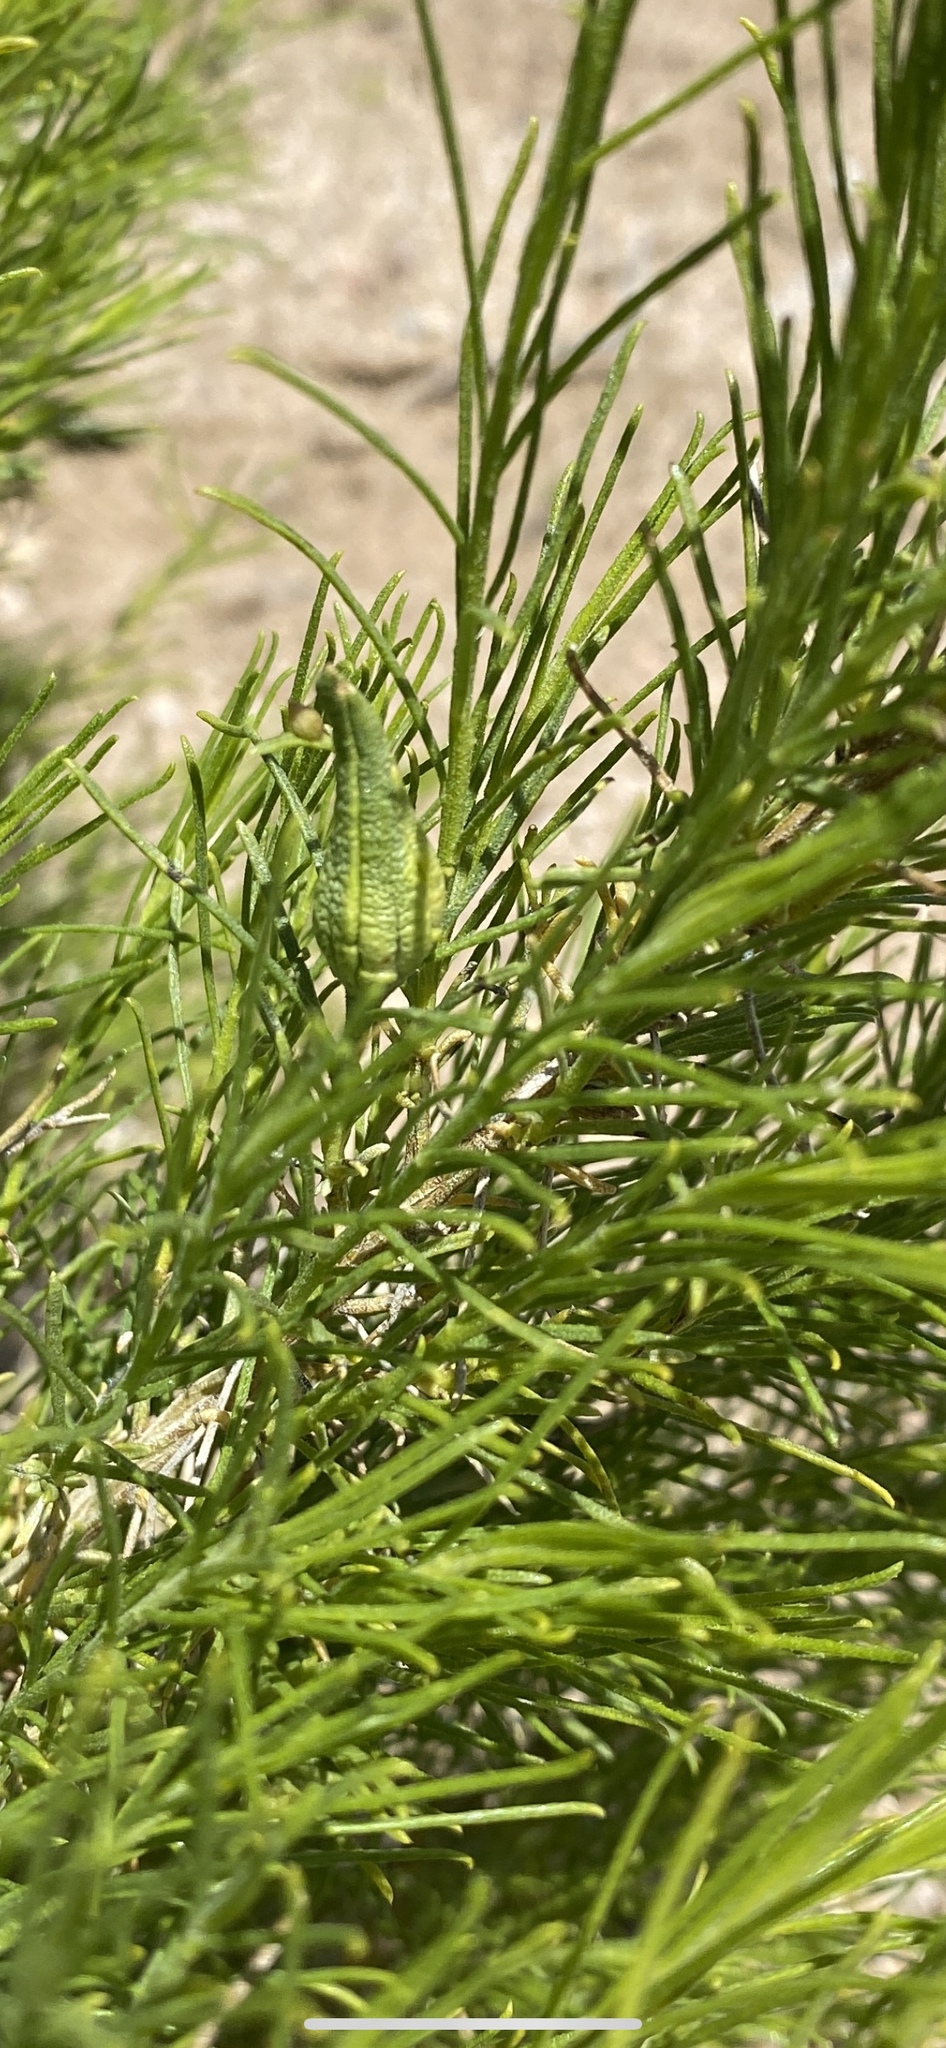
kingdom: Plantae
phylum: Tracheophyta
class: Magnoliopsida
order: Asterales
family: Asteraceae
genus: Ambrosia
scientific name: Ambrosia monogyra
